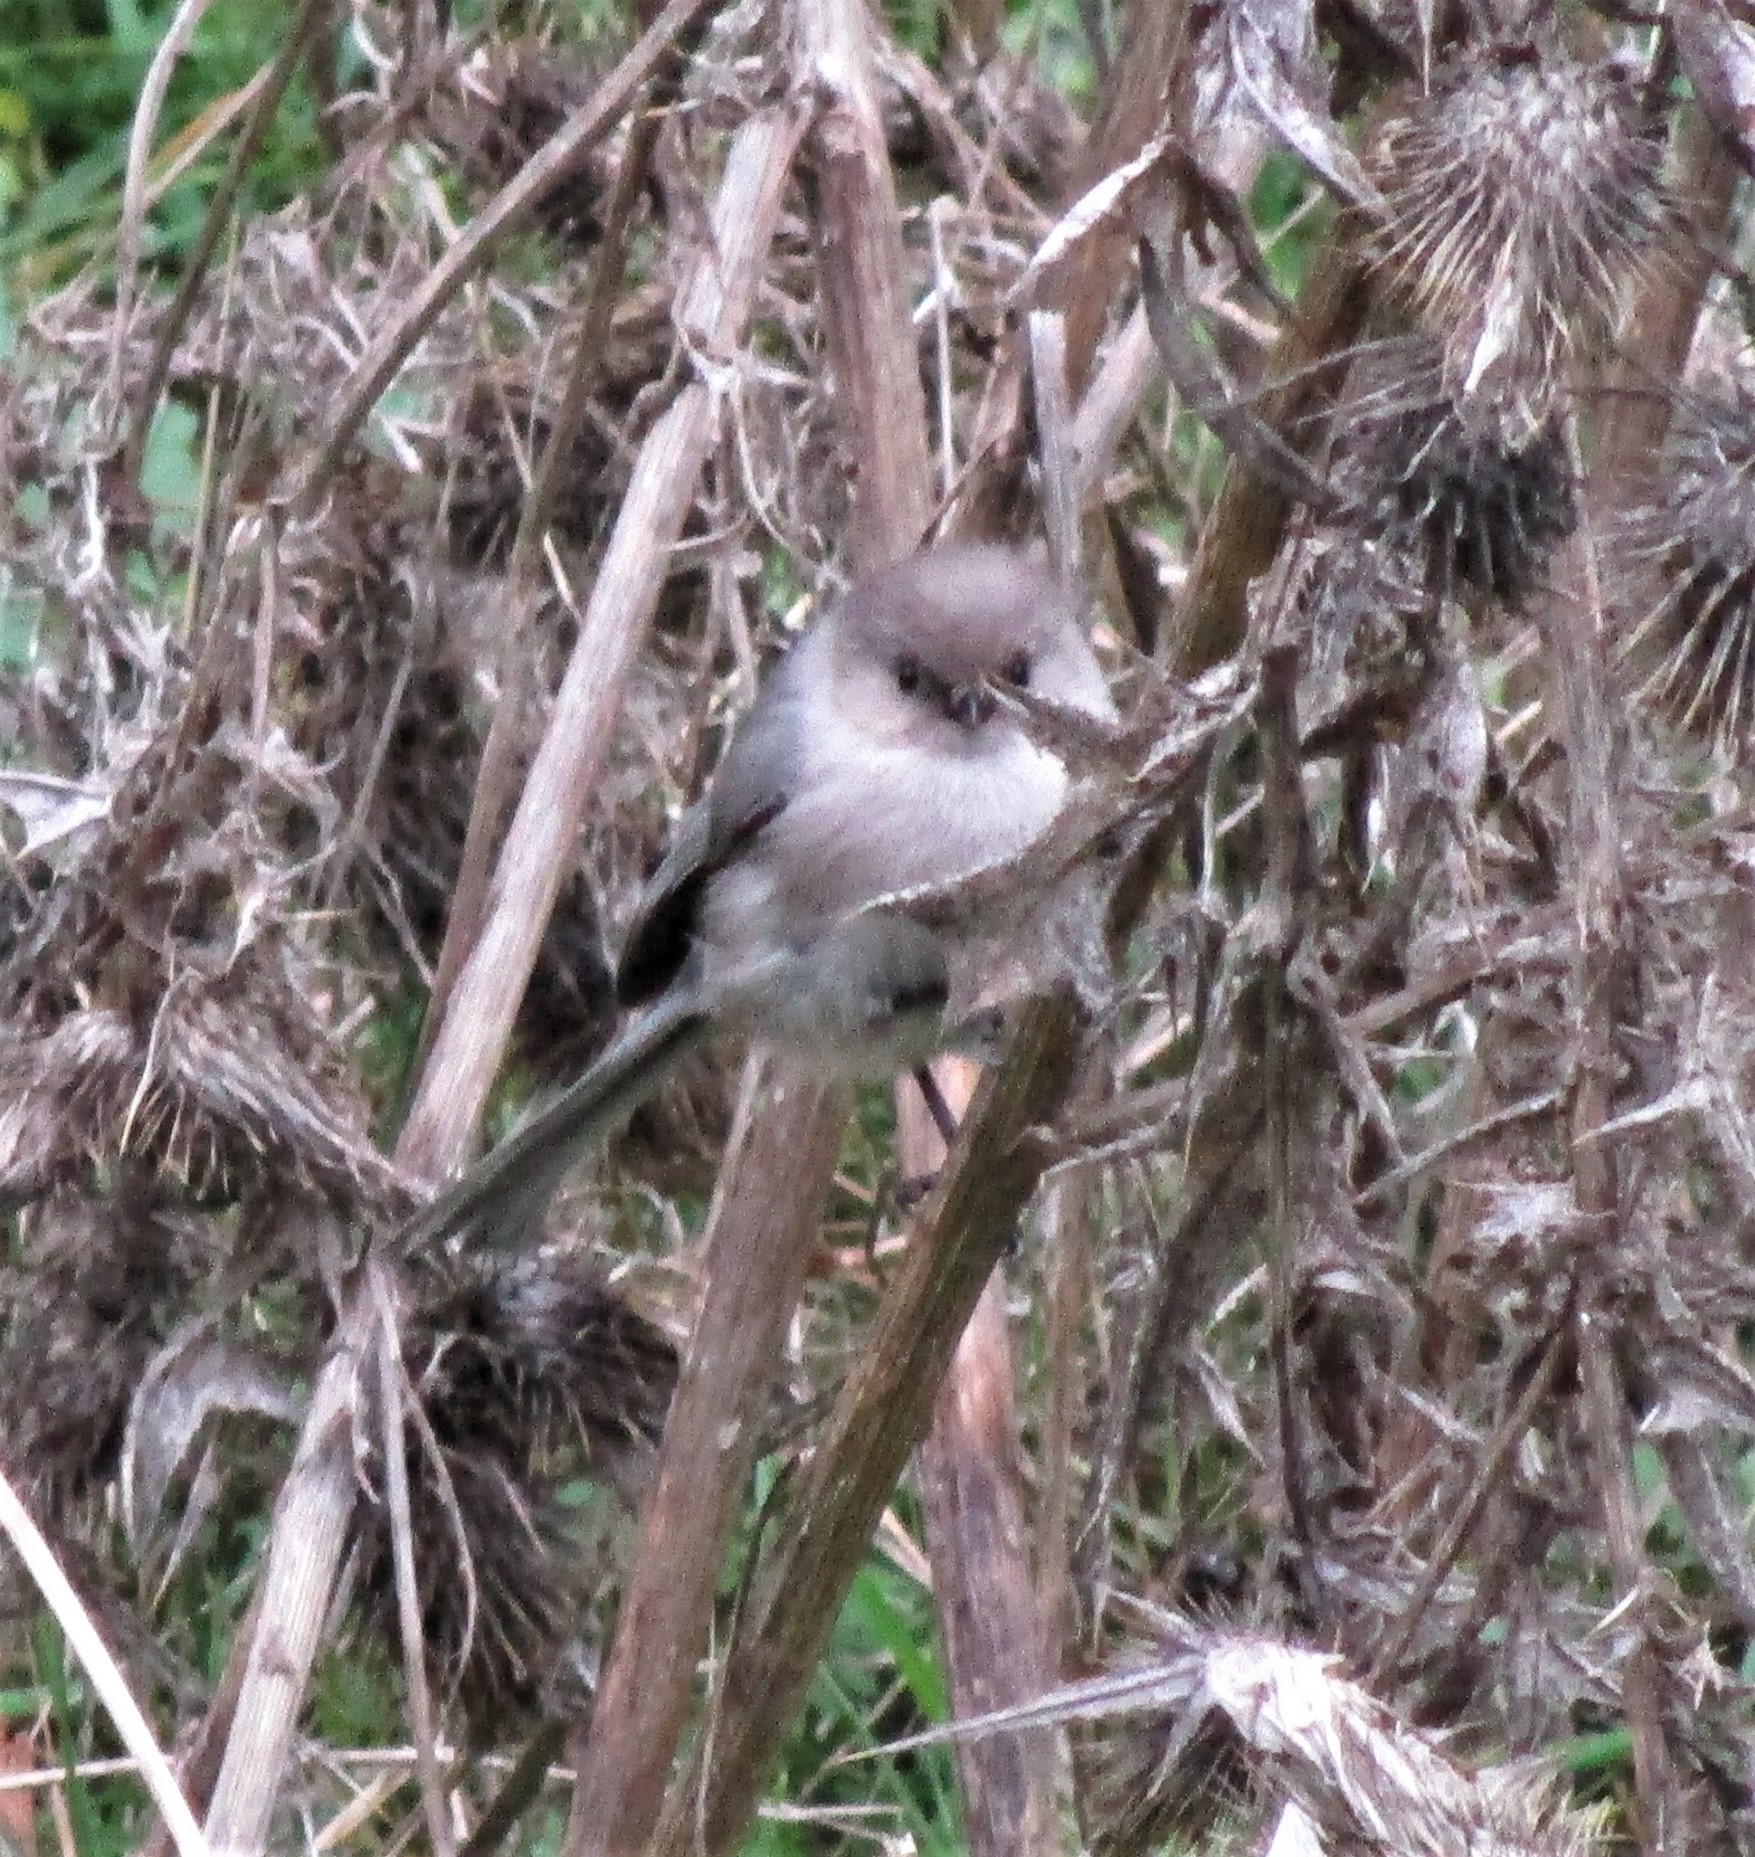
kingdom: Animalia
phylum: Chordata
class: Aves
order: Passeriformes
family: Aegithalidae
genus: Psaltriparus
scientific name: Psaltriparus minimus
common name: American bushtit
